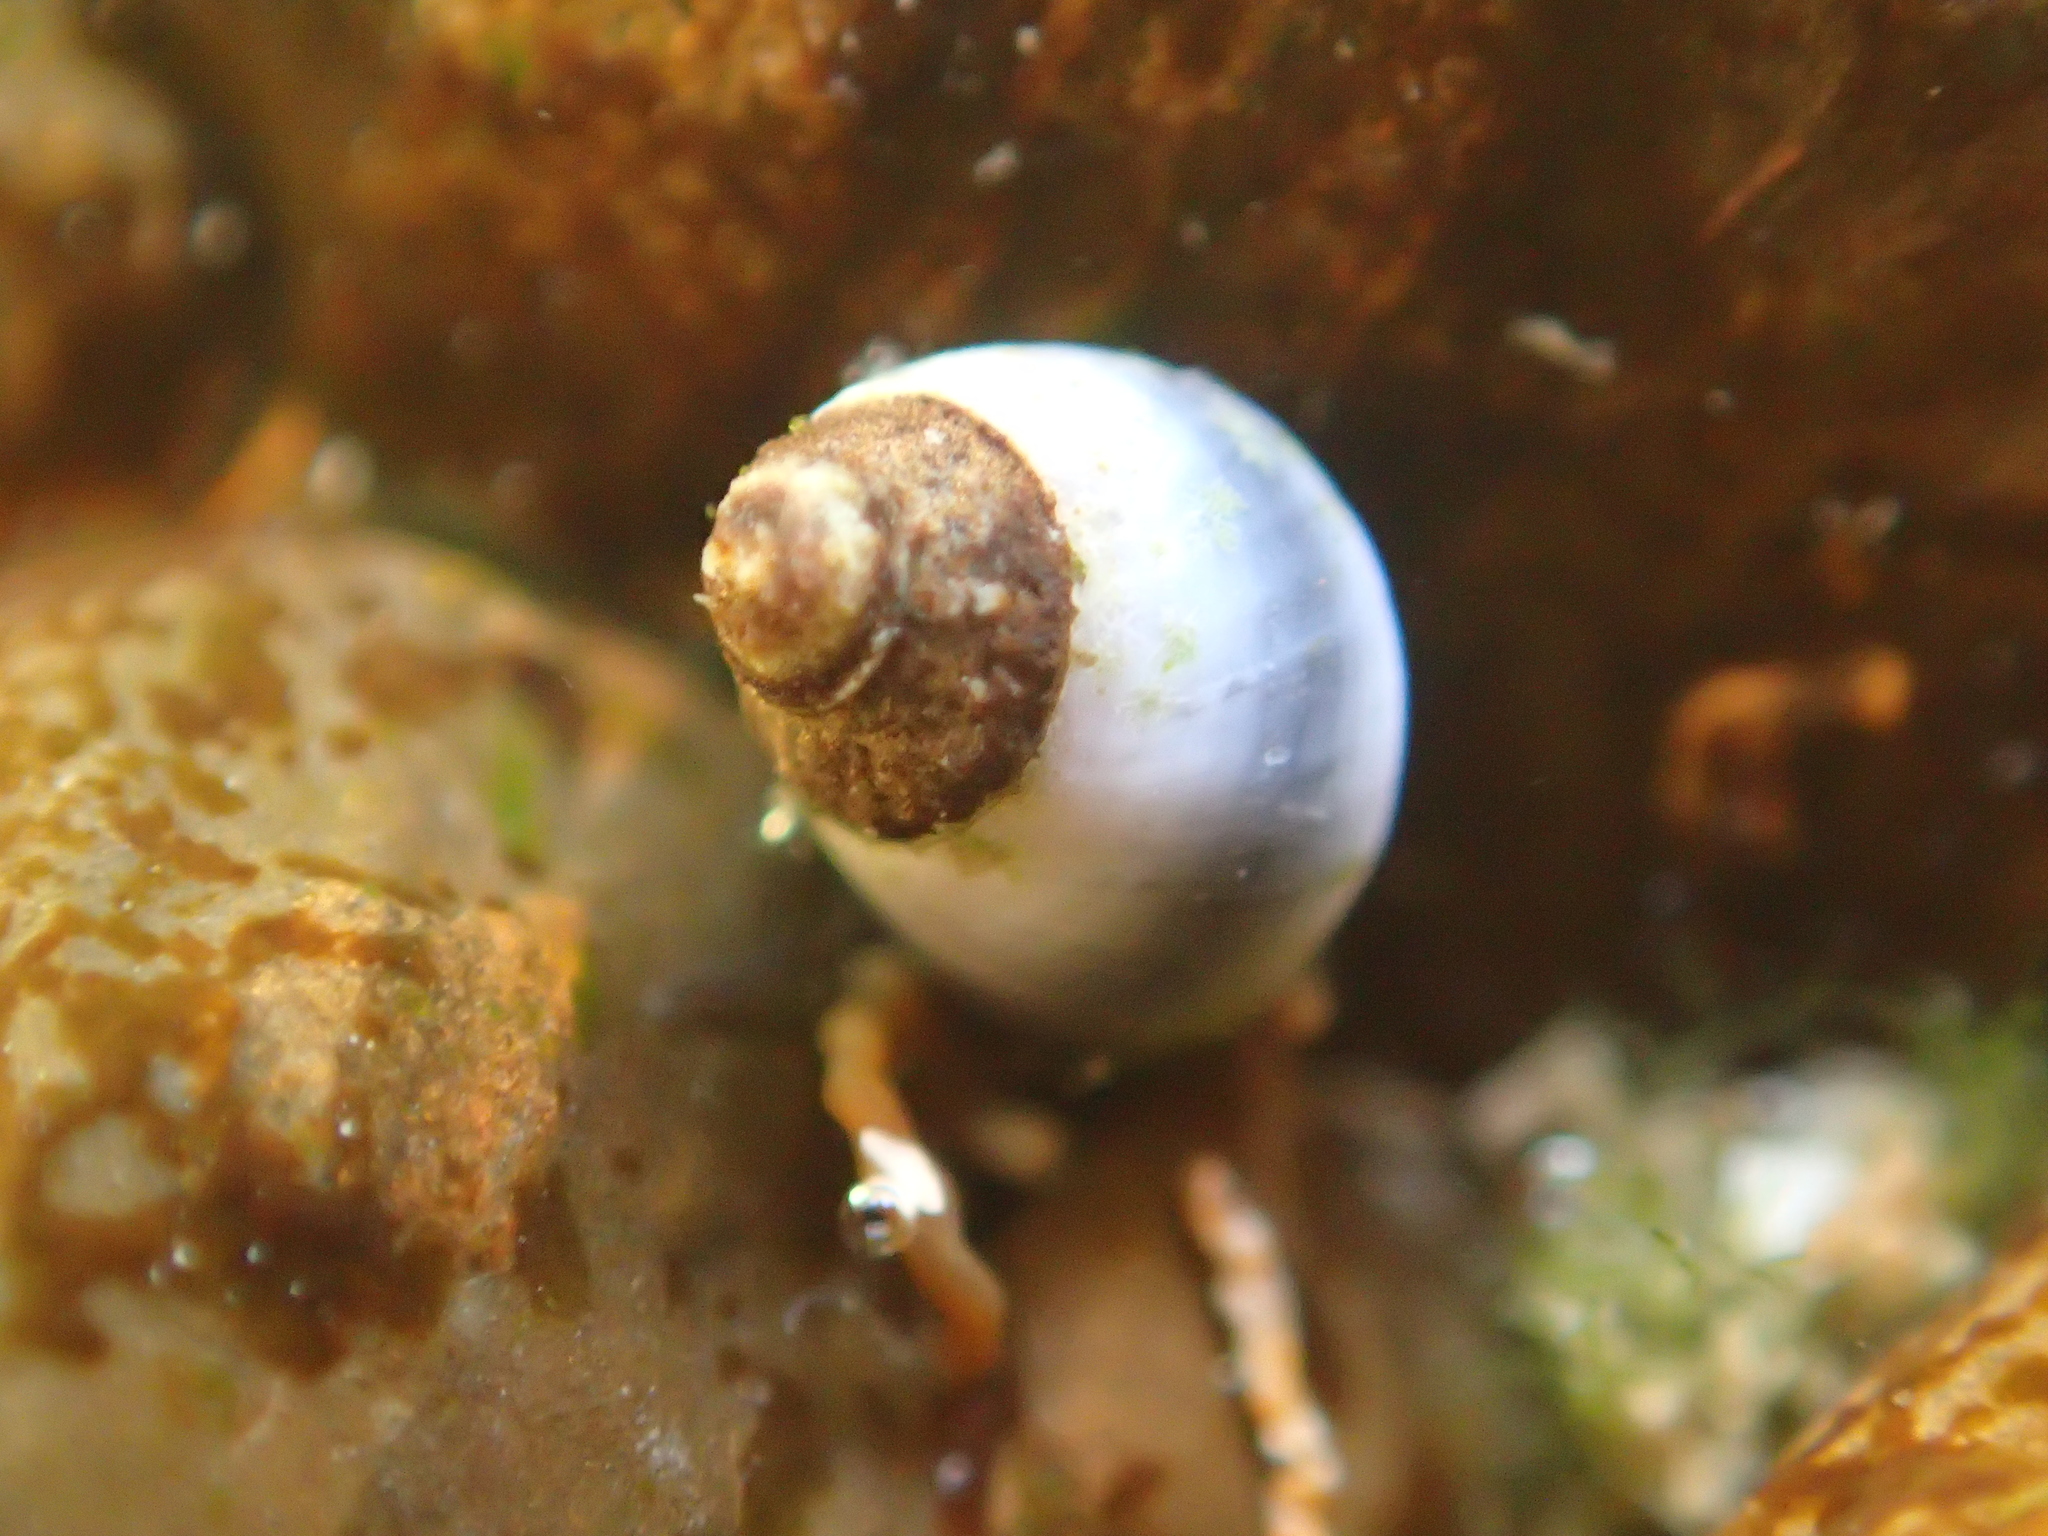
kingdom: Animalia
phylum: Mollusca
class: Gastropoda
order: Littorinimorpha
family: Littorinidae
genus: Austrolittorina
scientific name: Austrolittorina antipodum
